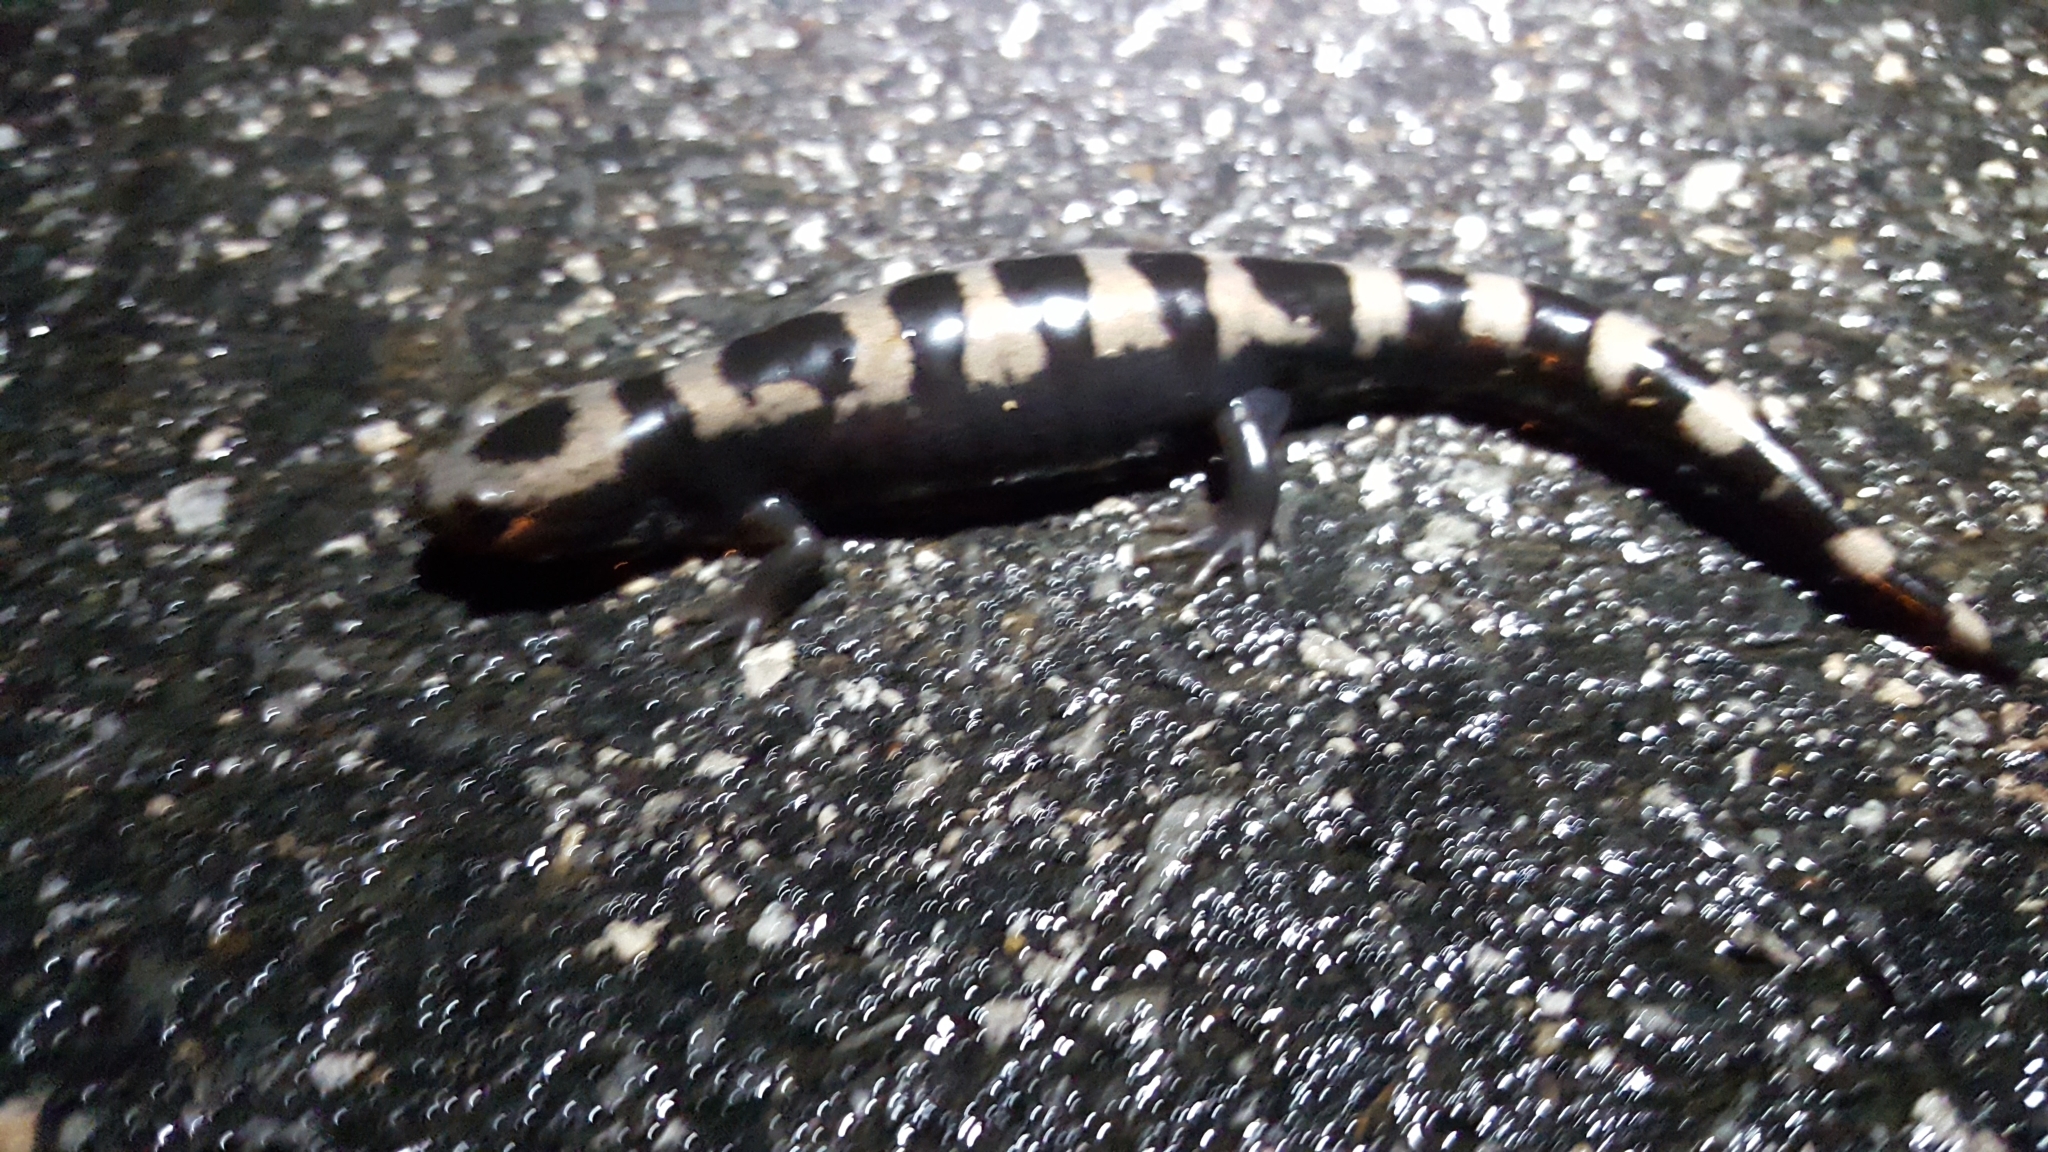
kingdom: Animalia
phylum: Chordata
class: Amphibia
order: Caudata
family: Ambystomatidae
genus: Ambystoma
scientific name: Ambystoma opacum
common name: Marbled salamander
